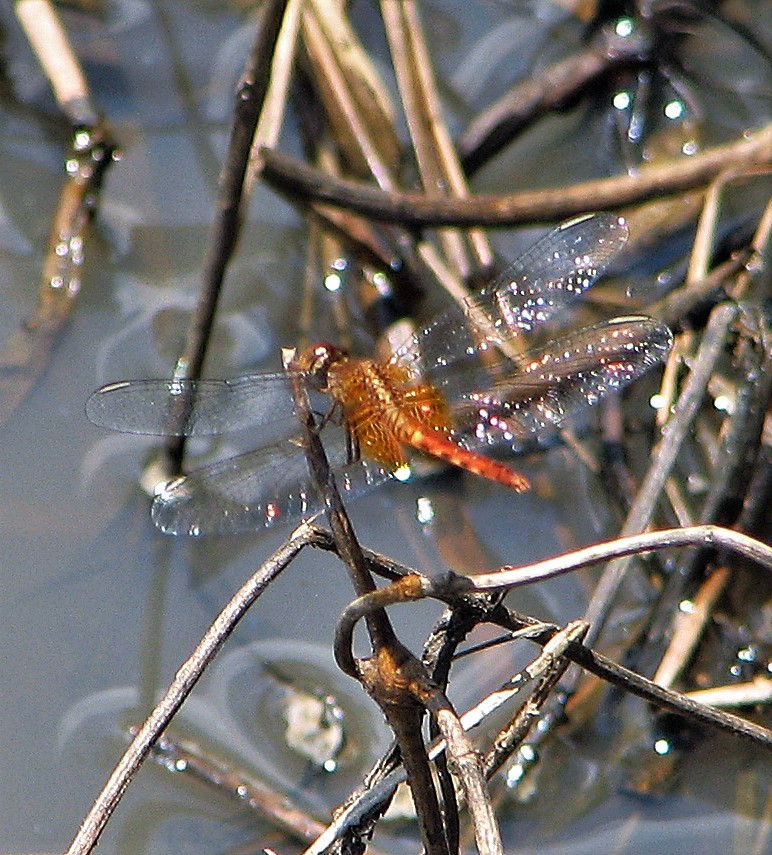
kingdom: Animalia
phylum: Arthropoda
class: Insecta
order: Odonata
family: Libellulidae
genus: Erythrodiplax
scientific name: Erythrodiplax ochracea
